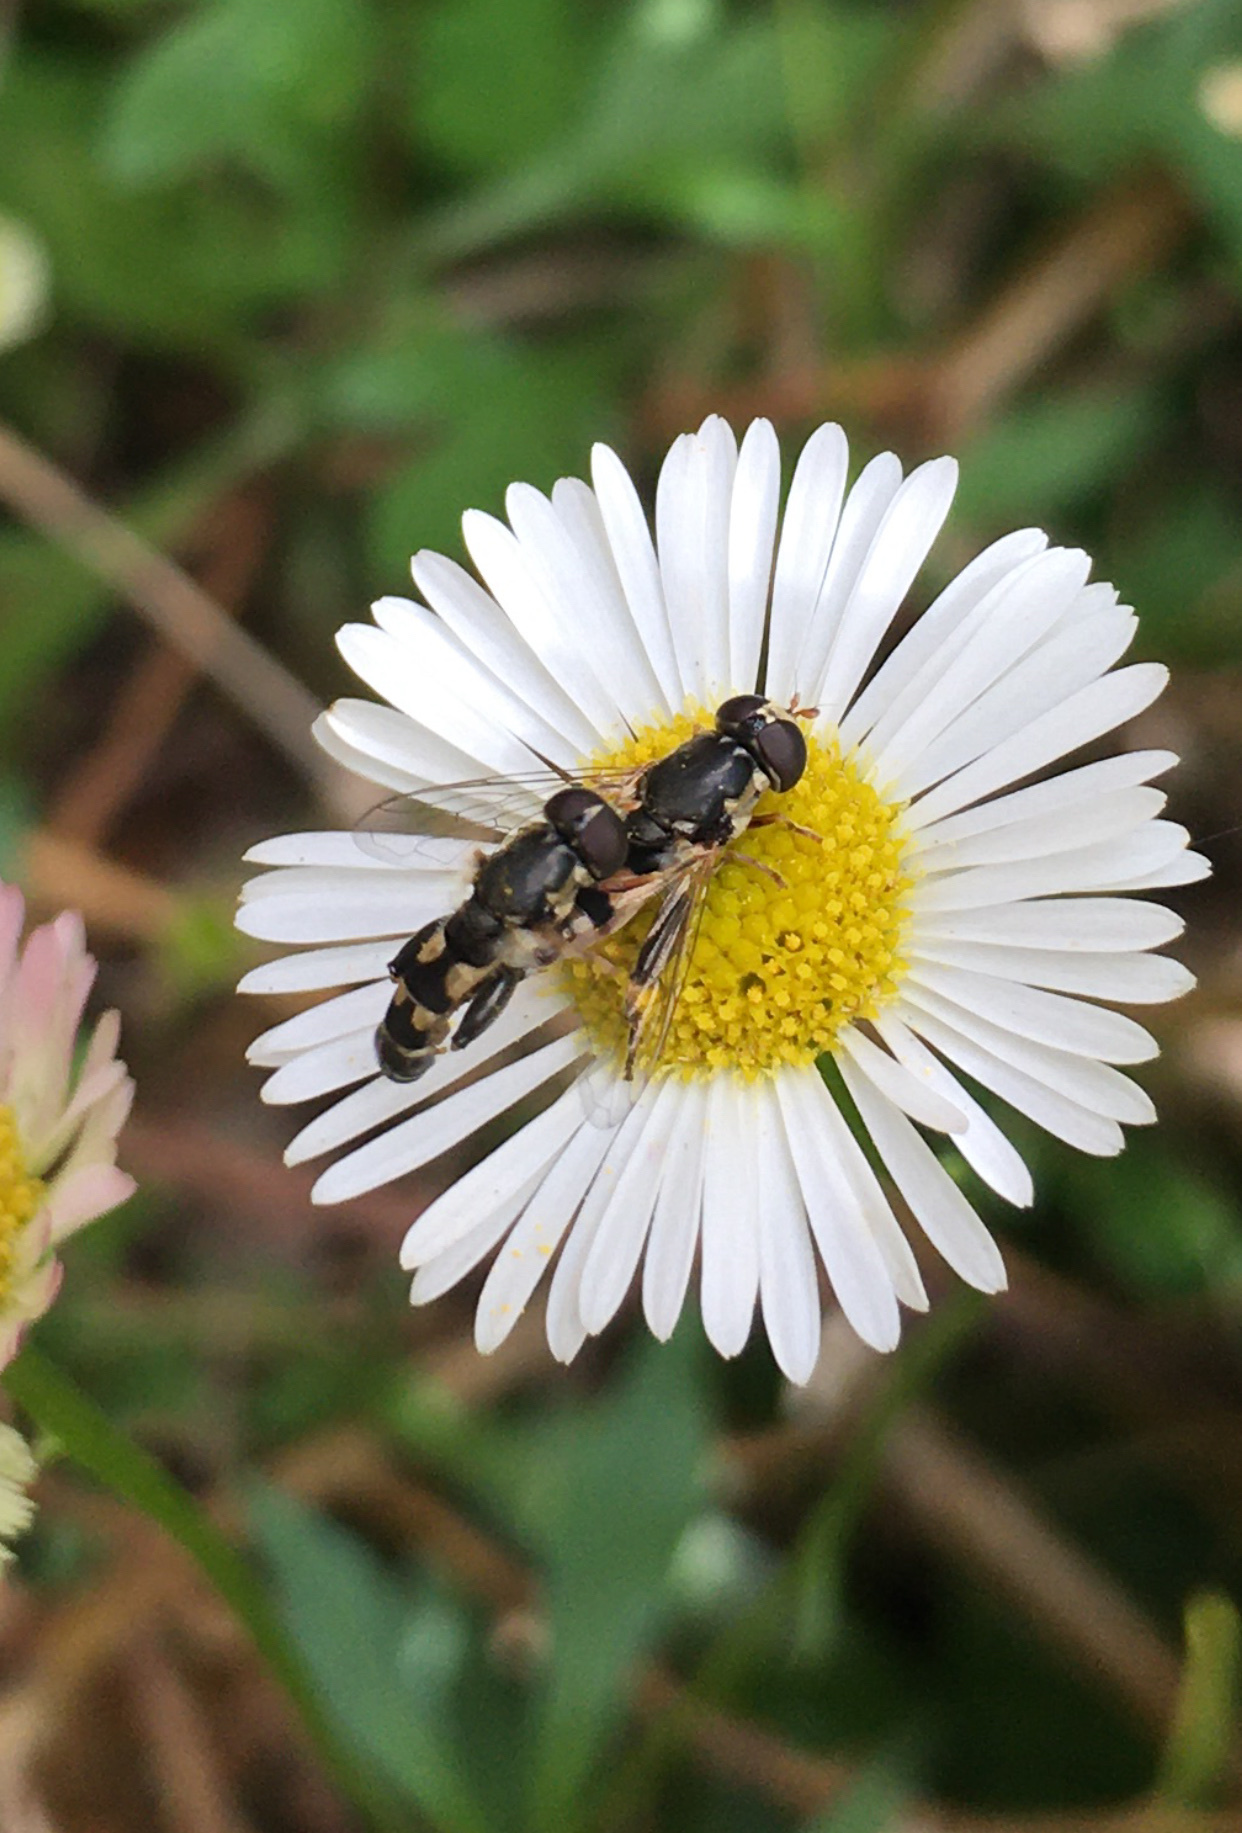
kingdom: Animalia
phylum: Arthropoda
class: Insecta
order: Diptera
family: Syrphidae
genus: Syritta
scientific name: Syritta pipiens
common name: Hover fly
